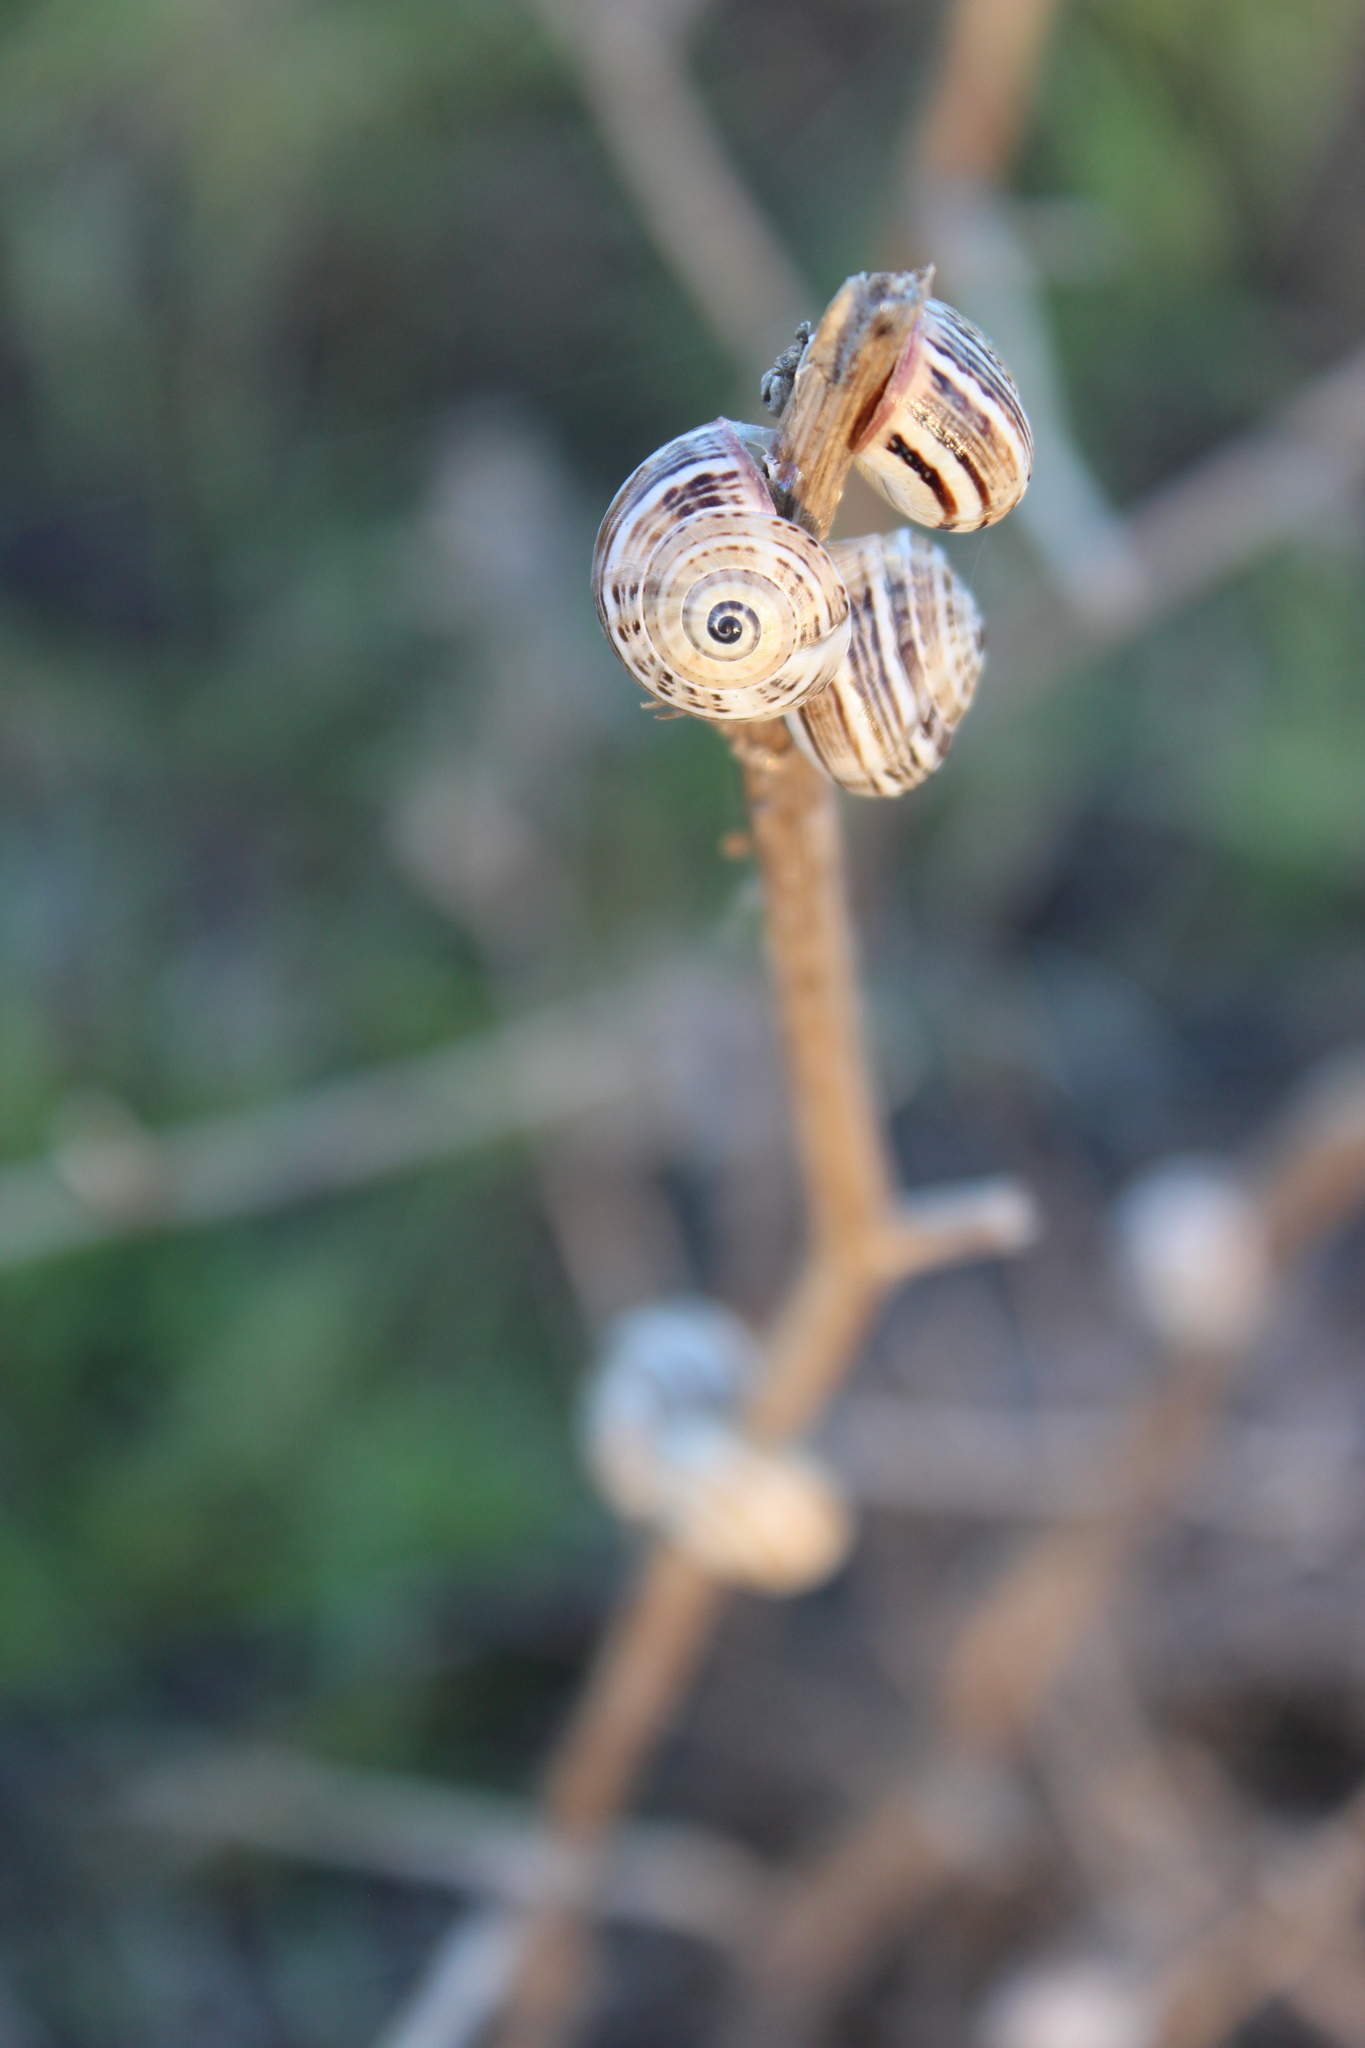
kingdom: Animalia
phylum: Mollusca
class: Gastropoda
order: Stylommatophora
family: Helicidae
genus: Theba
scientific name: Theba pisana
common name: White snail
